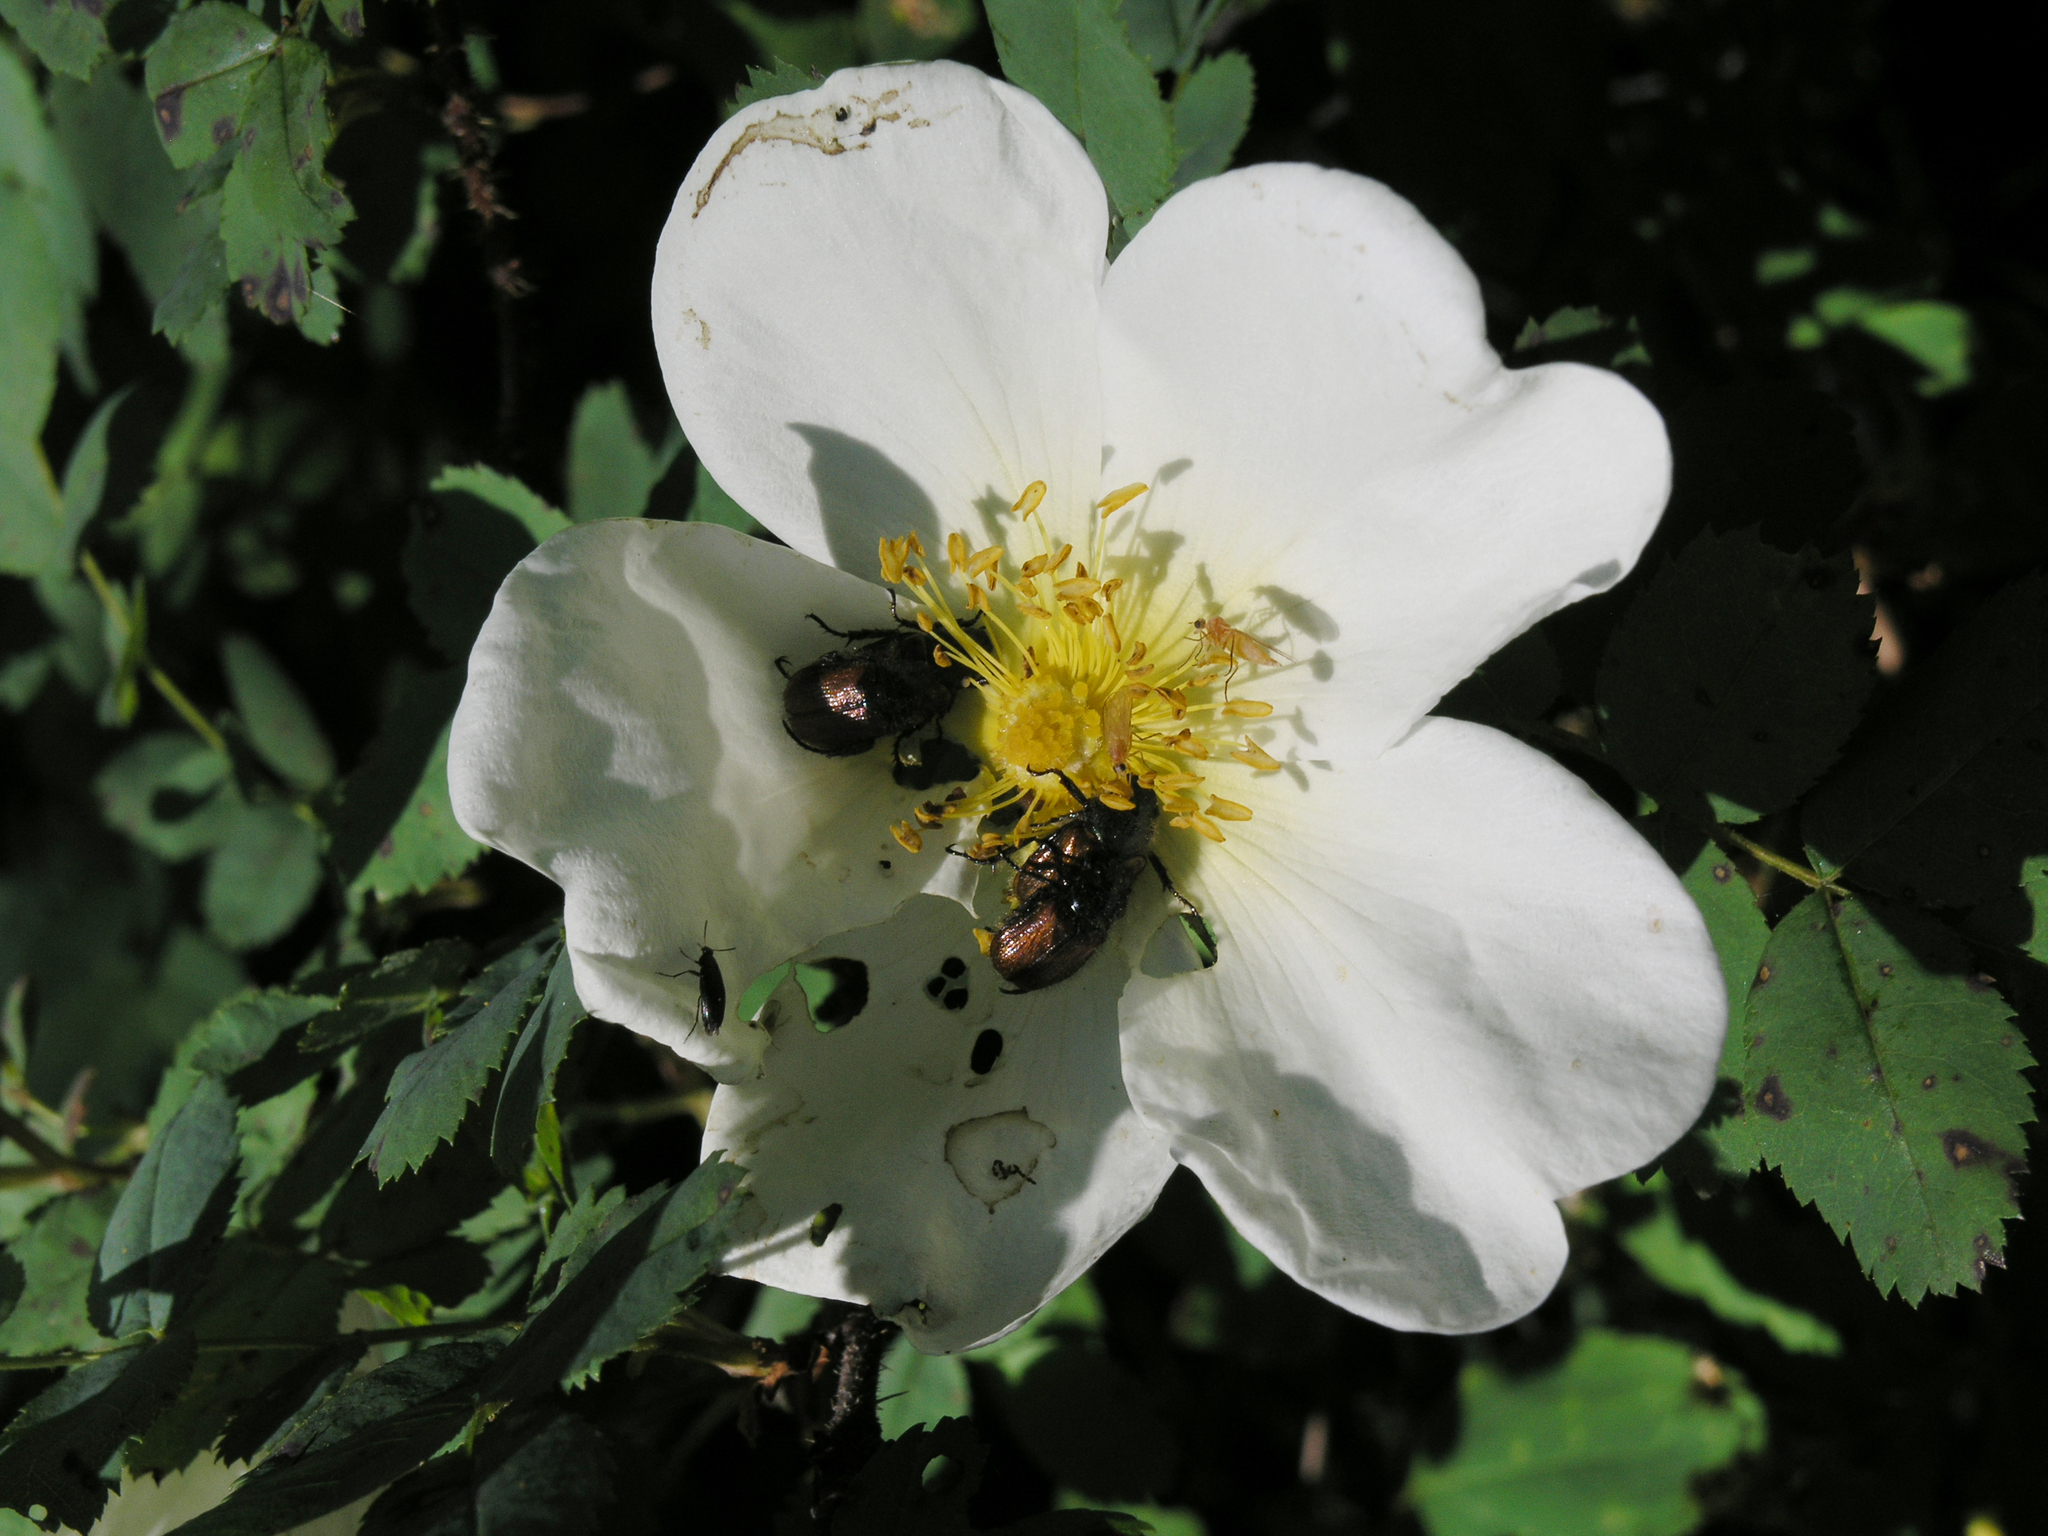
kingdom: Animalia
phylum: Arthropoda
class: Insecta
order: Coleoptera
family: Scarabaeidae
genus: Phyllopertha
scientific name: Phyllopertha horticola
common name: Garden chafer
